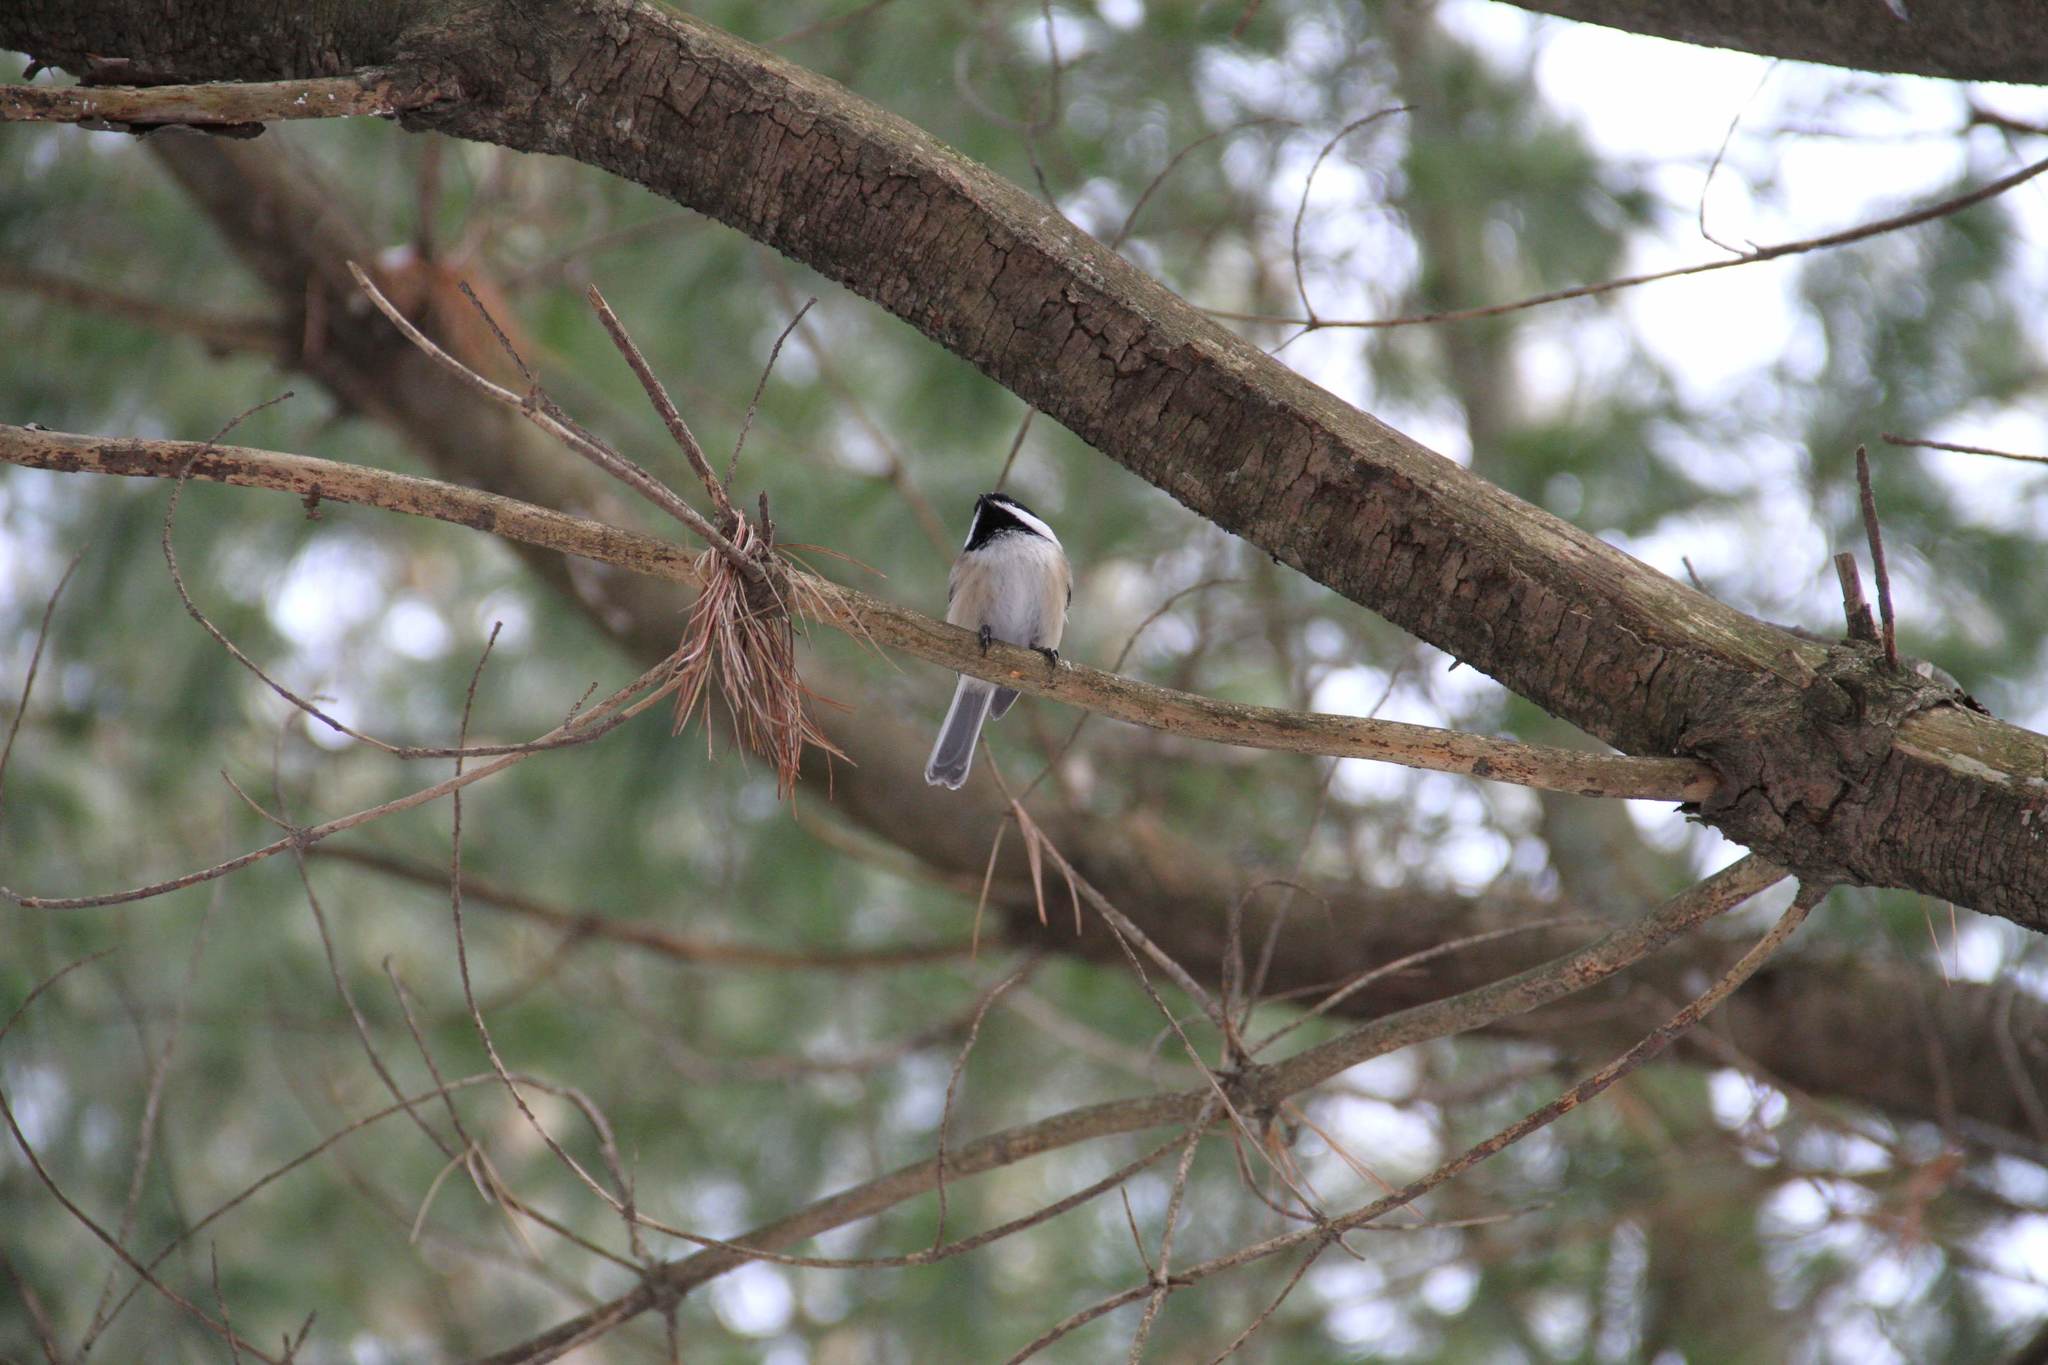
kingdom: Animalia
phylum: Chordata
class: Aves
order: Passeriformes
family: Paridae
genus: Poecile
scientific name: Poecile atricapillus
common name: Black-capped chickadee
